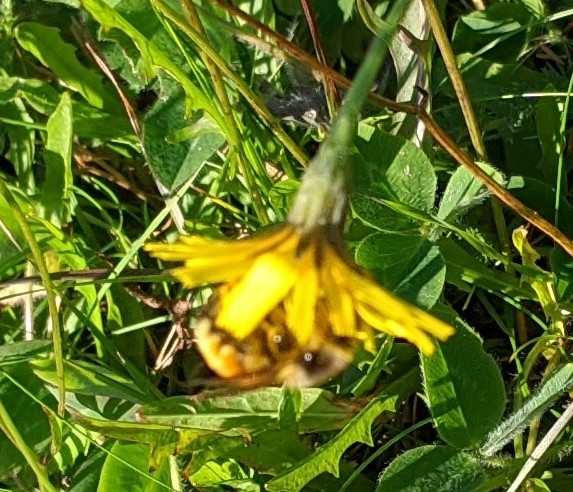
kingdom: Animalia
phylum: Arthropoda
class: Insecta
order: Hymenoptera
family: Apidae
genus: Bombus
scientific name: Bombus ternarius
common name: Tri-colored bumble bee
